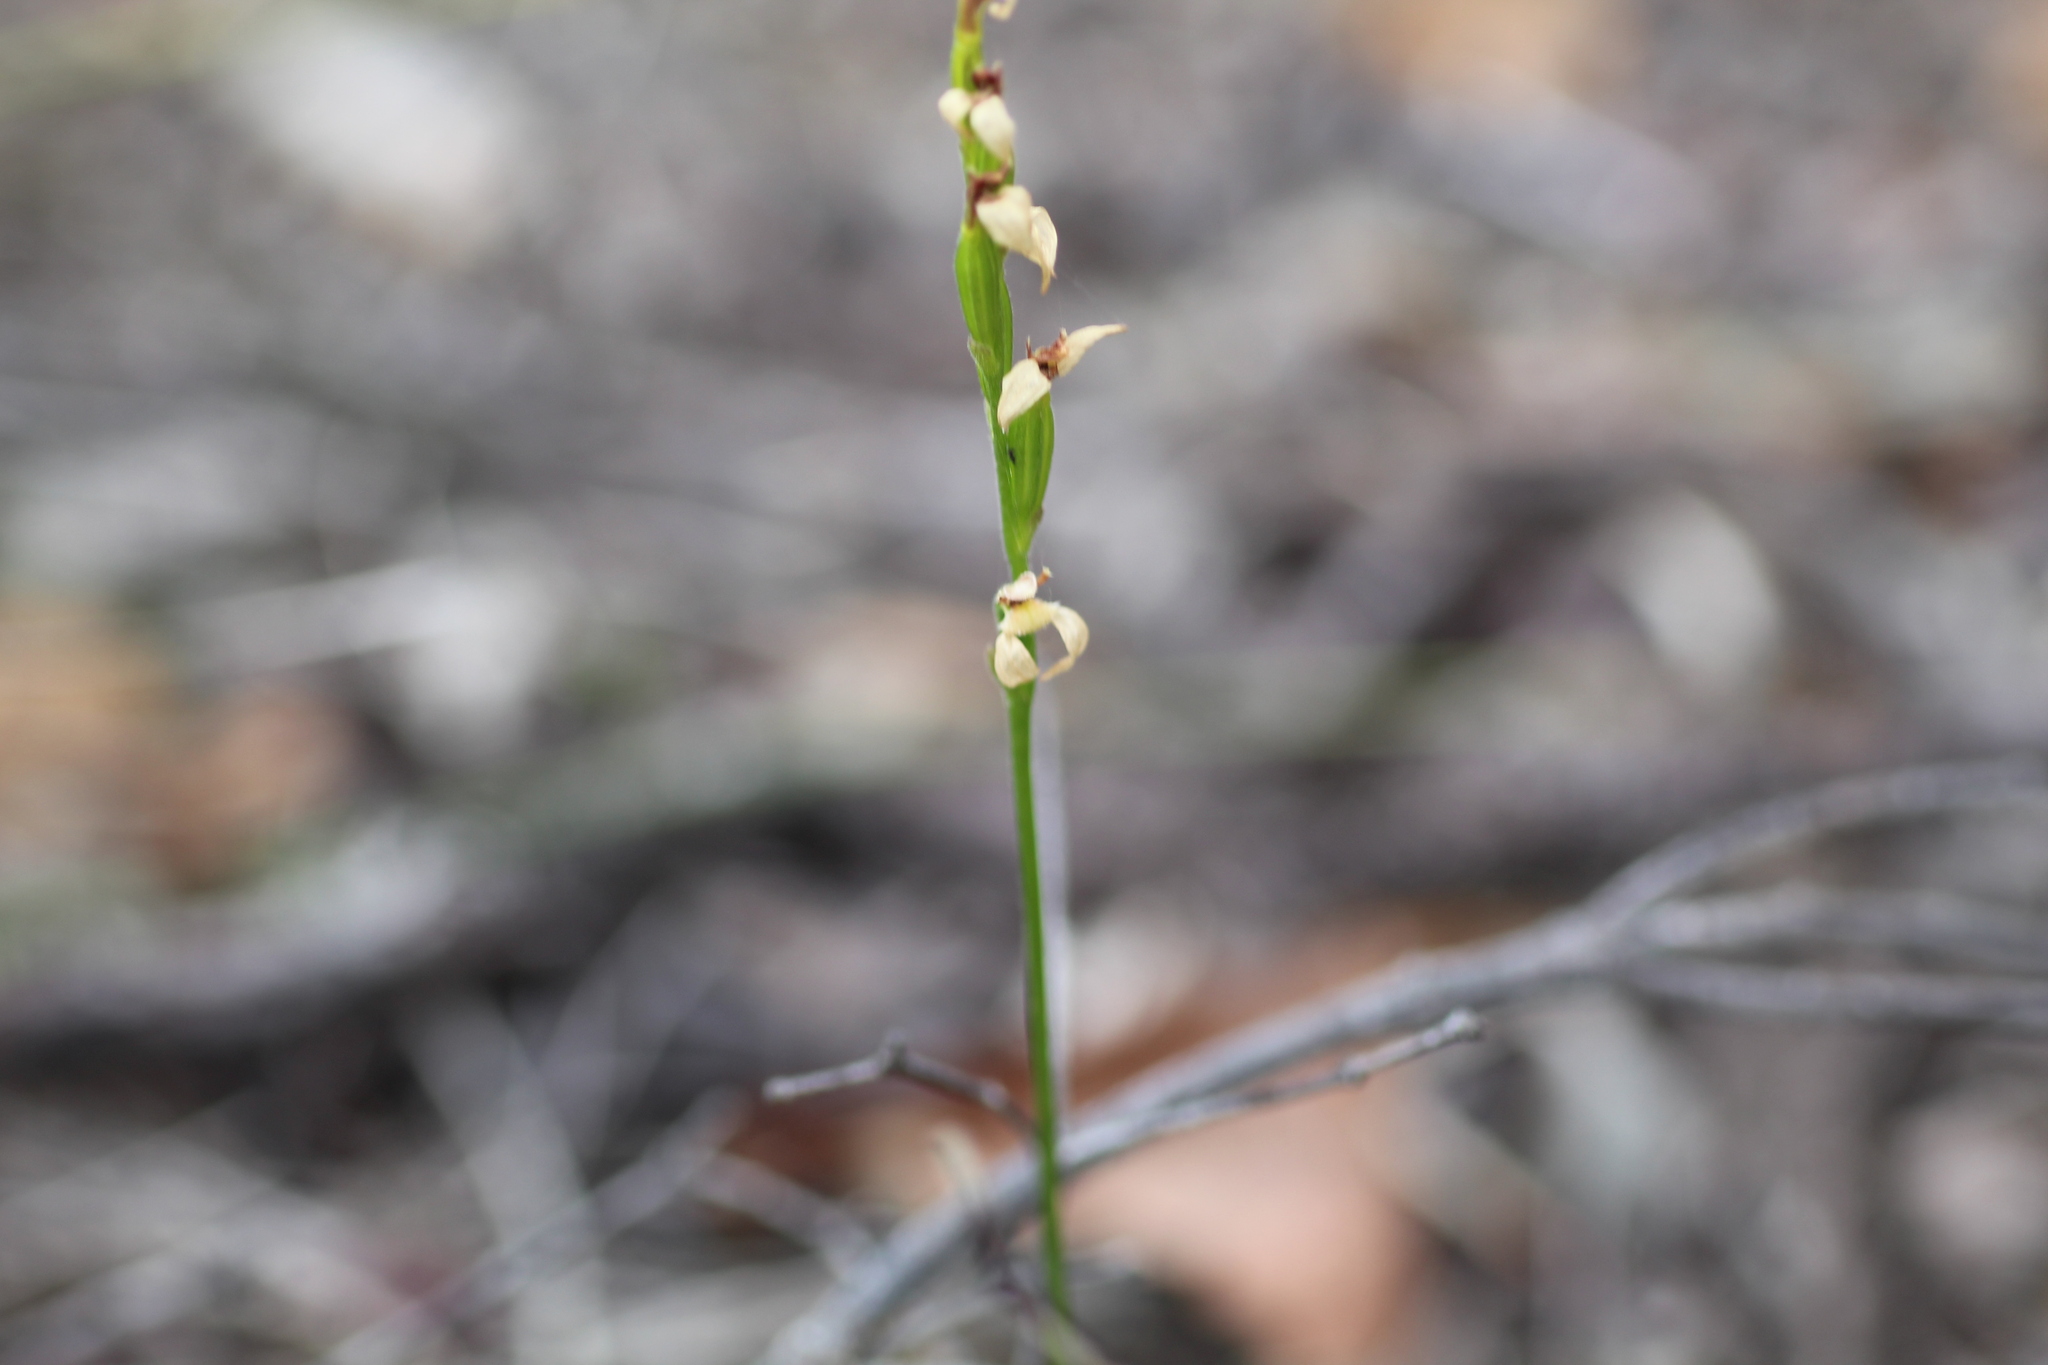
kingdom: Plantae
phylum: Tracheophyta
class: Liliopsida
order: Asparagales
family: Orchidaceae
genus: Eriochilus
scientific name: Eriochilus dilatatus
